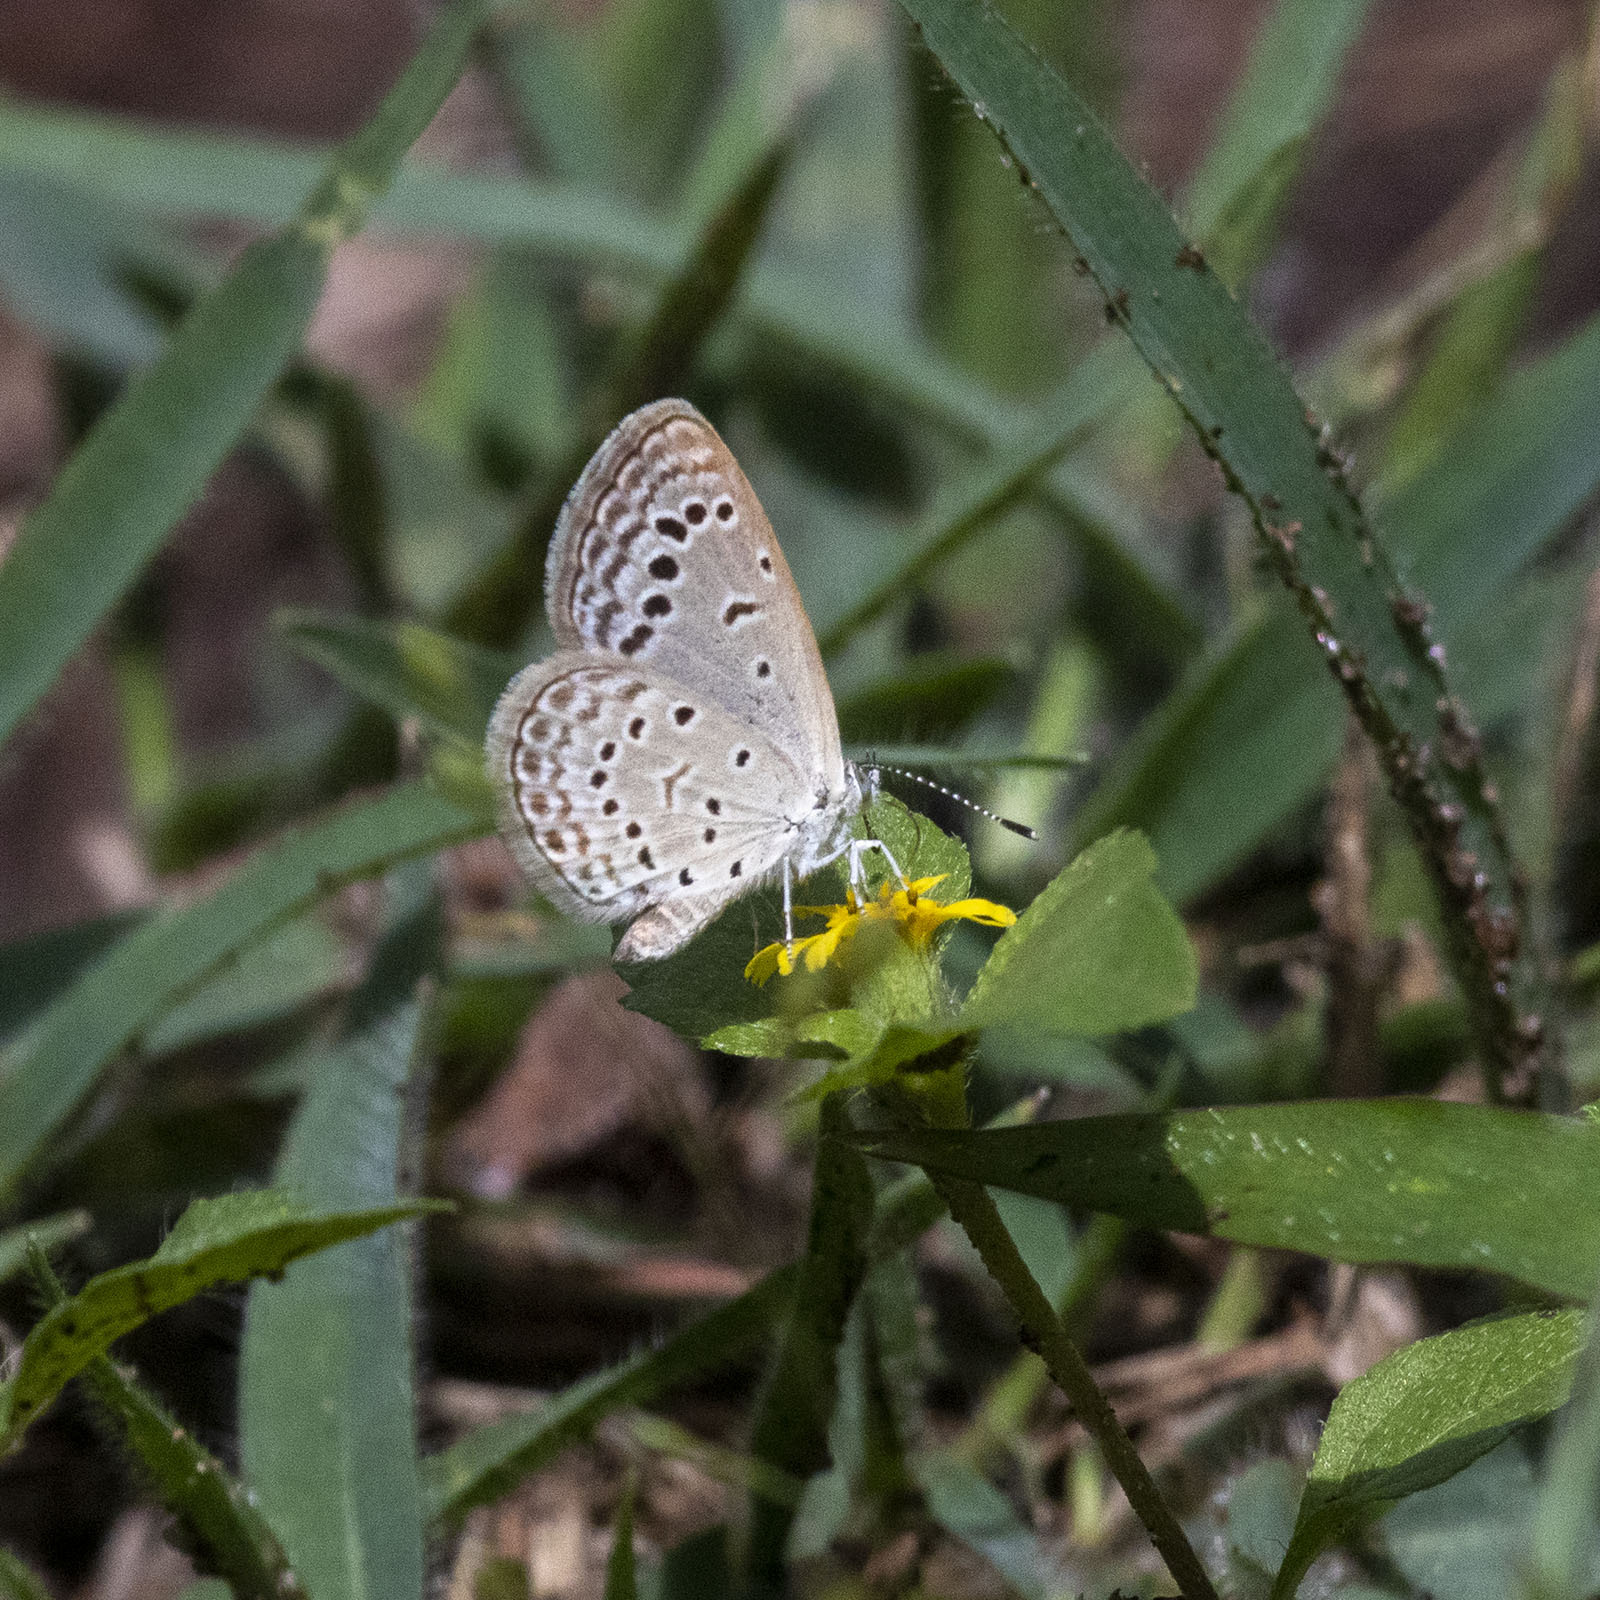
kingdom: Animalia
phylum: Arthropoda
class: Insecta
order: Lepidoptera
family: Lycaenidae
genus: Zizeeria
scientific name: Zizeeria karsandra
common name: Dark grass blue
